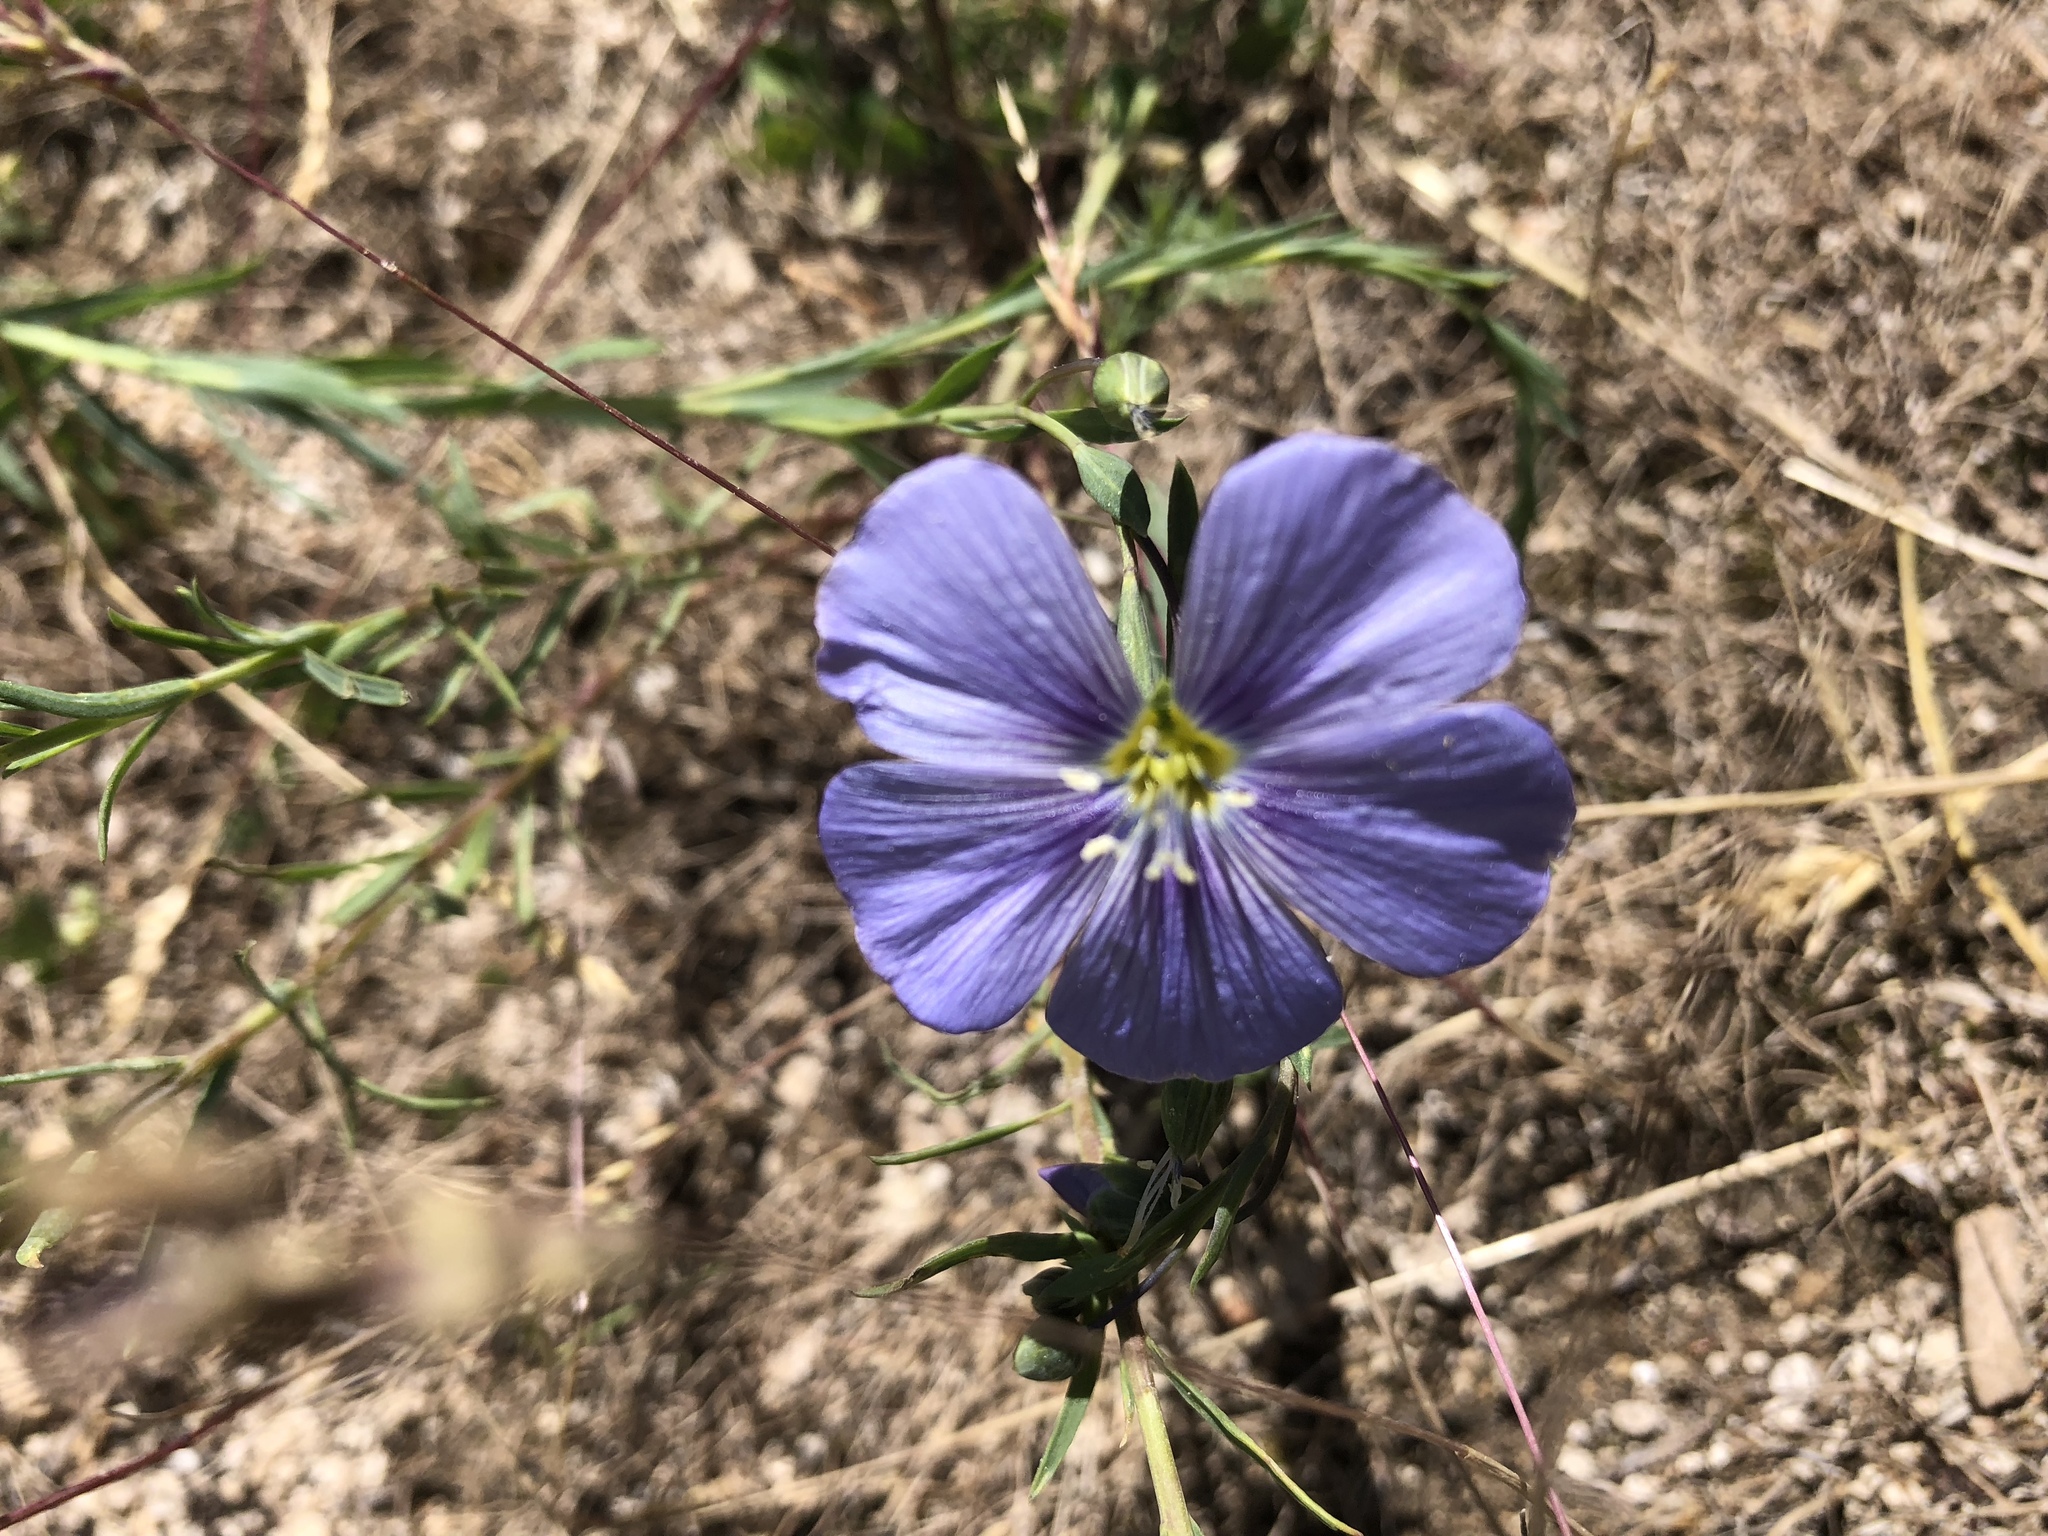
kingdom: Plantae
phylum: Tracheophyta
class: Magnoliopsida
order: Malpighiales
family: Linaceae
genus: Linum
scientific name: Linum lewisii
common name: Prairie flax
